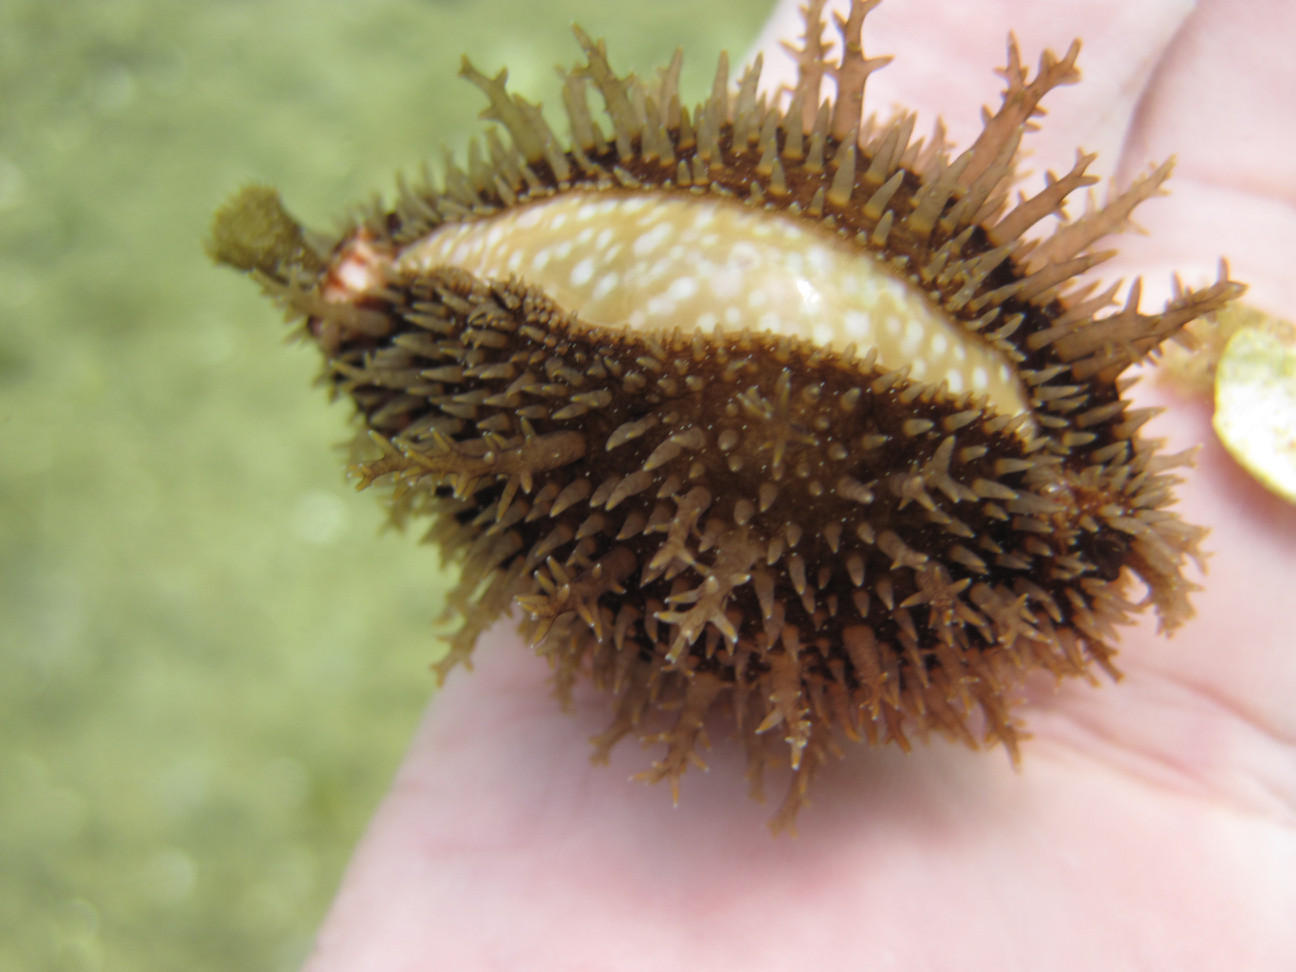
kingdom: Animalia
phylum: Mollusca
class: Gastropoda
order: Littorinimorpha
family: Cypraeidae
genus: Naria
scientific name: Naria lamarckii
